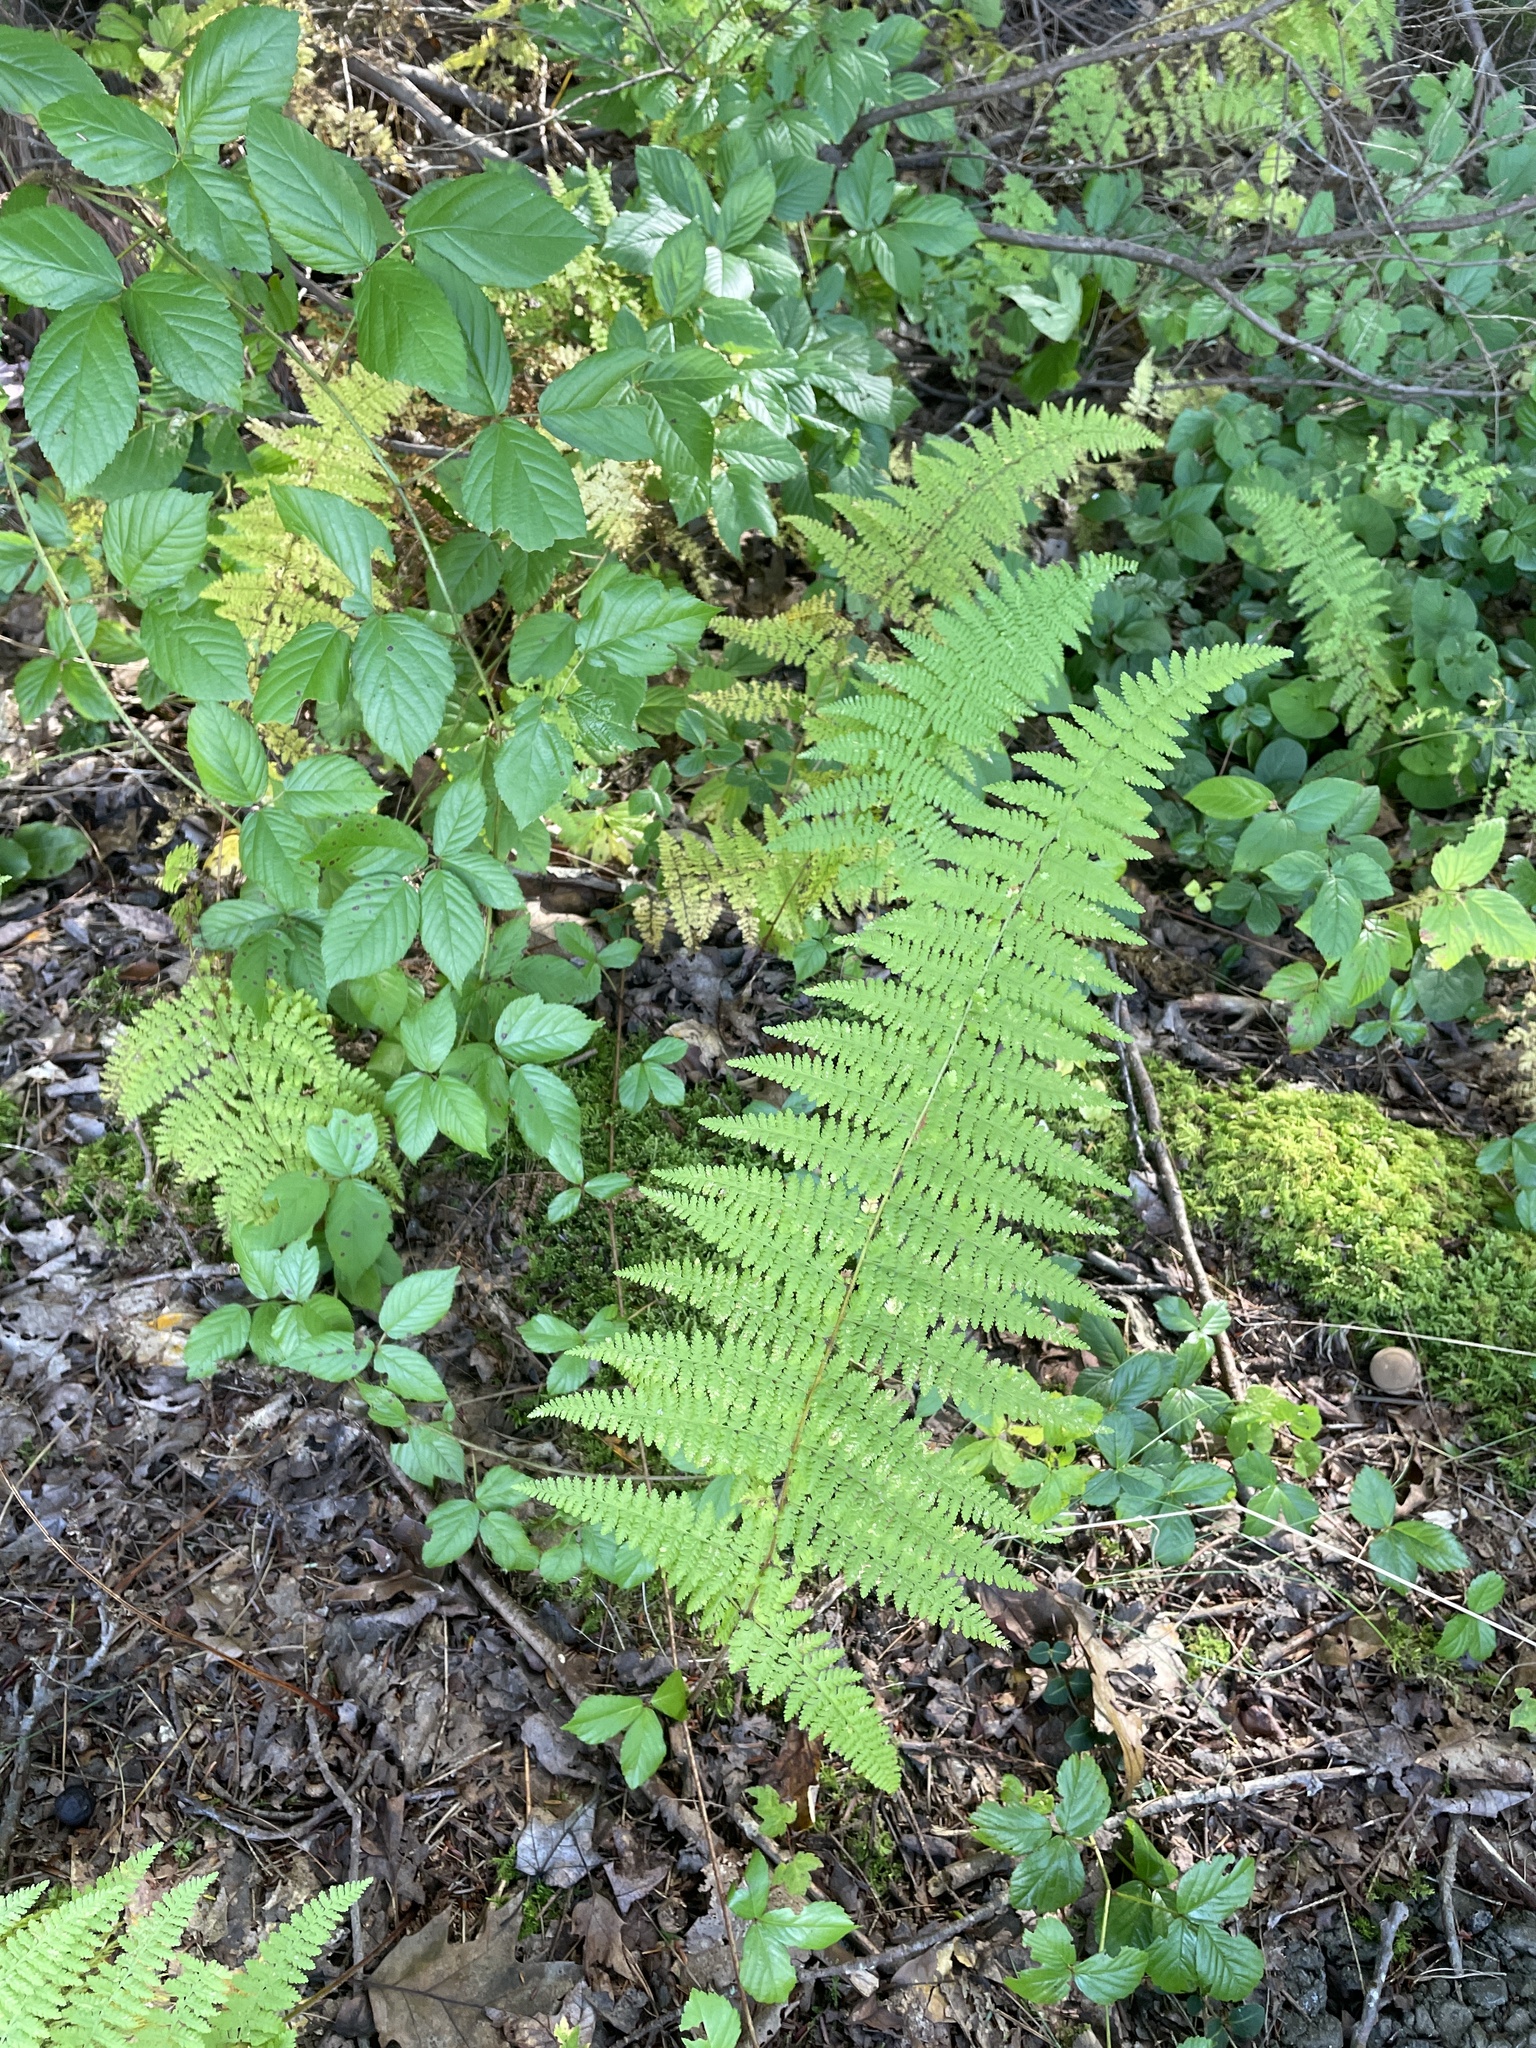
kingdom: Plantae
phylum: Tracheophyta
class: Polypodiopsida
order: Polypodiales
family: Dennstaedtiaceae
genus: Sitobolium
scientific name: Sitobolium punctilobum
